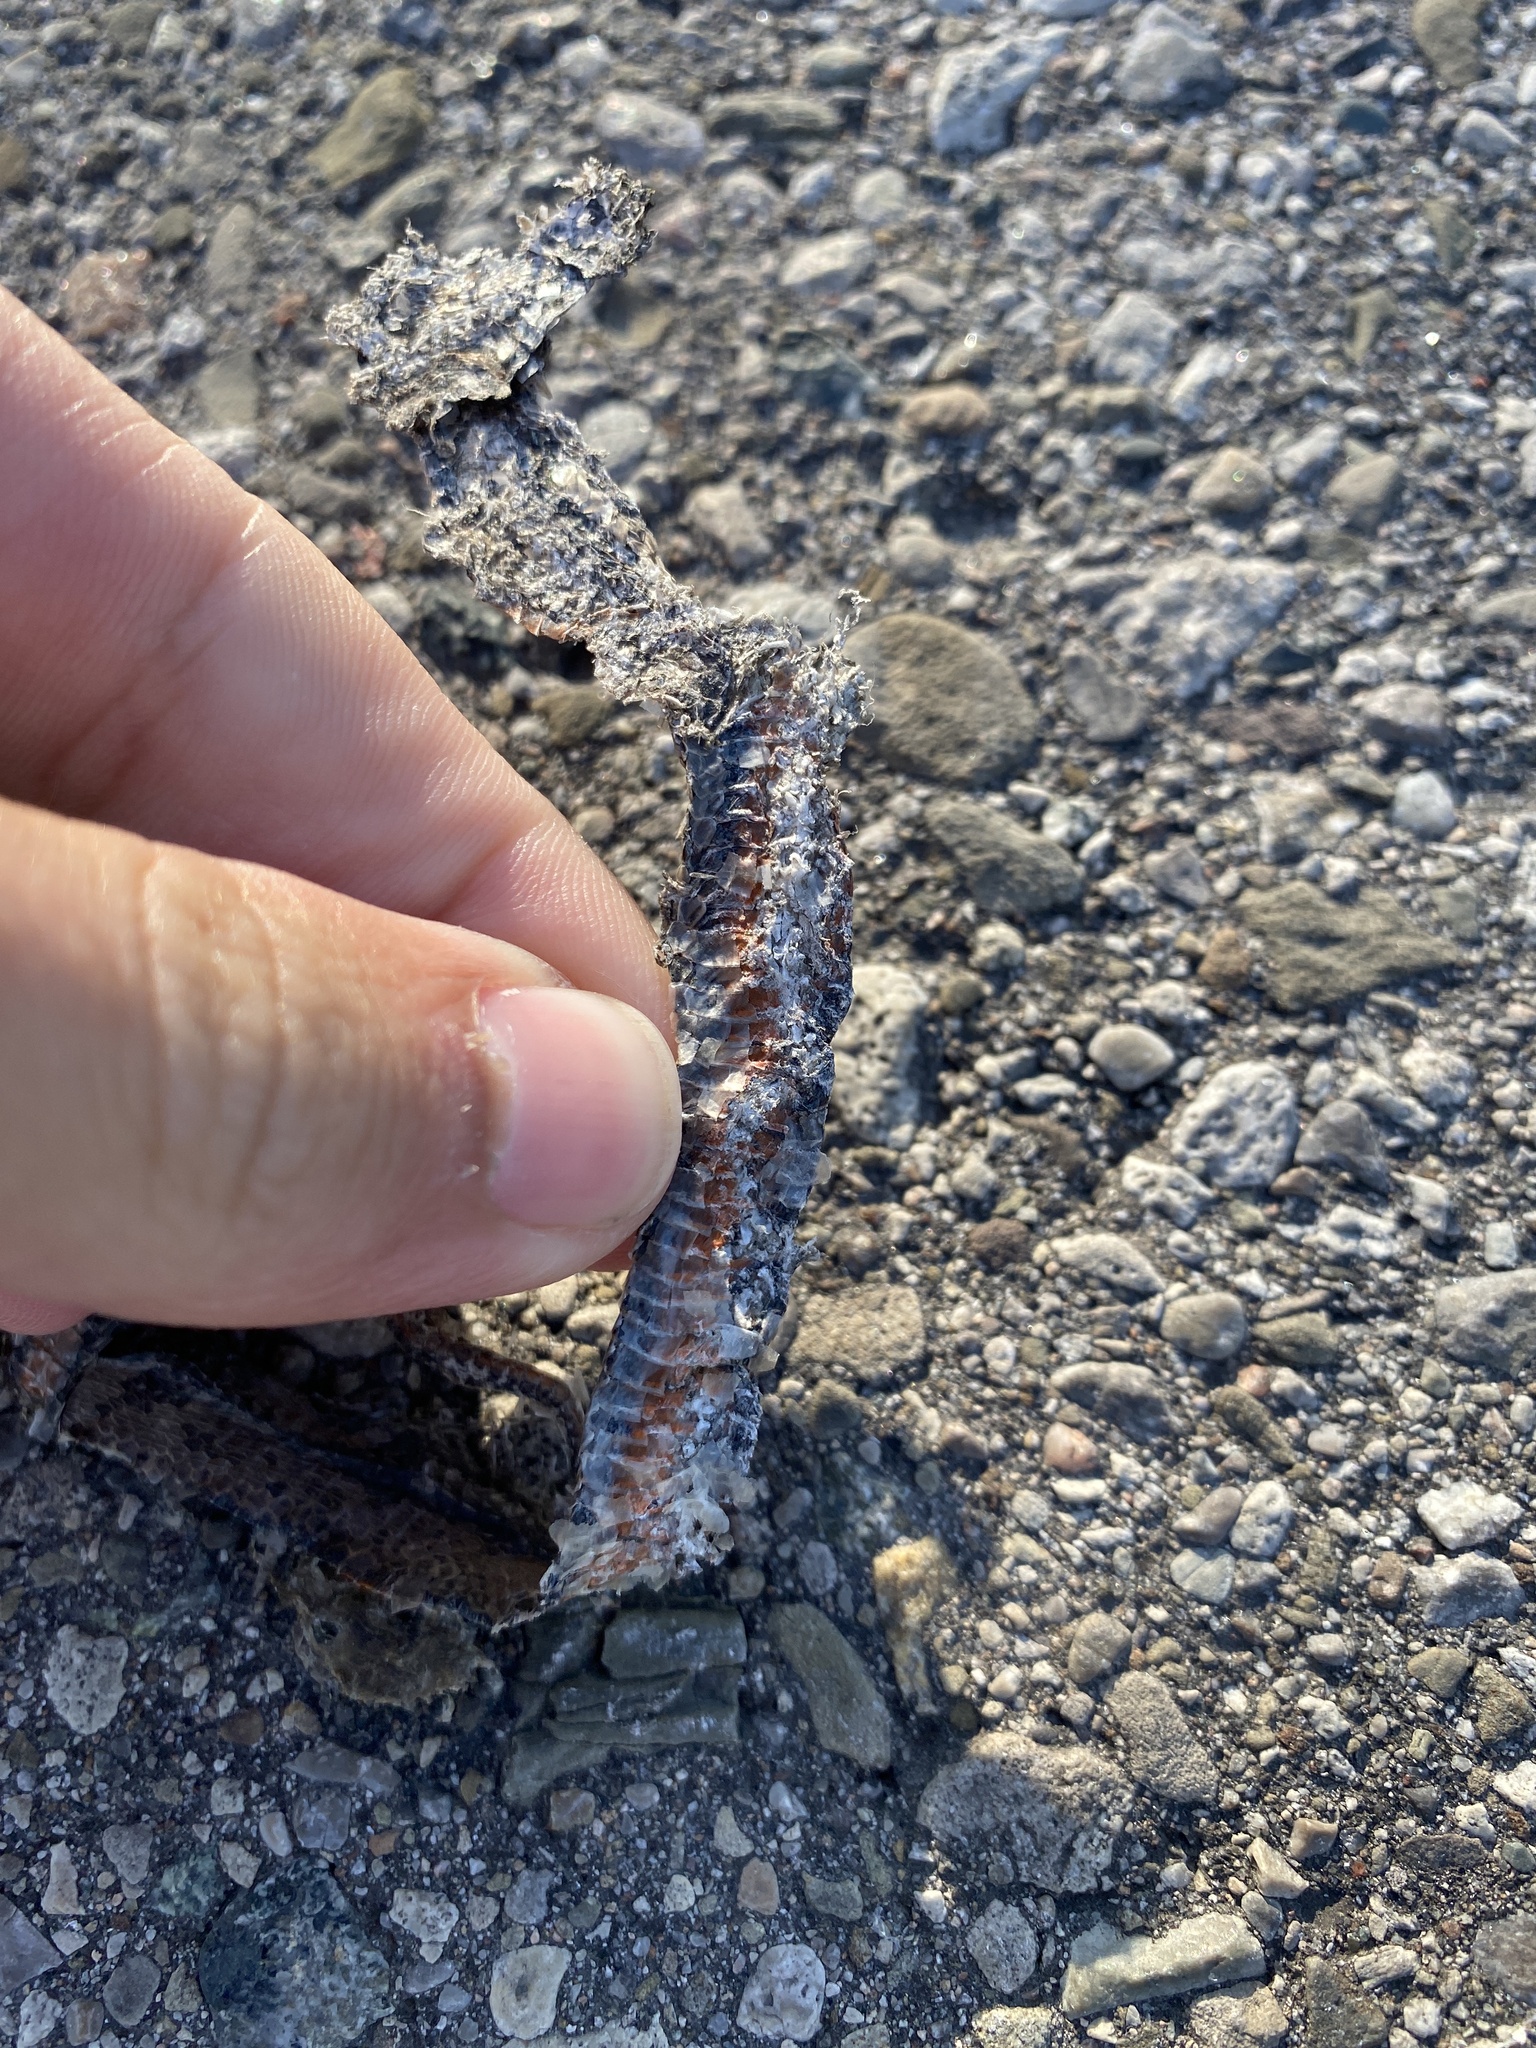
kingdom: Animalia
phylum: Chordata
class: Squamata
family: Colubridae
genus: Storeria
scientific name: Storeria occipitomaculata
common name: Redbelly snake
